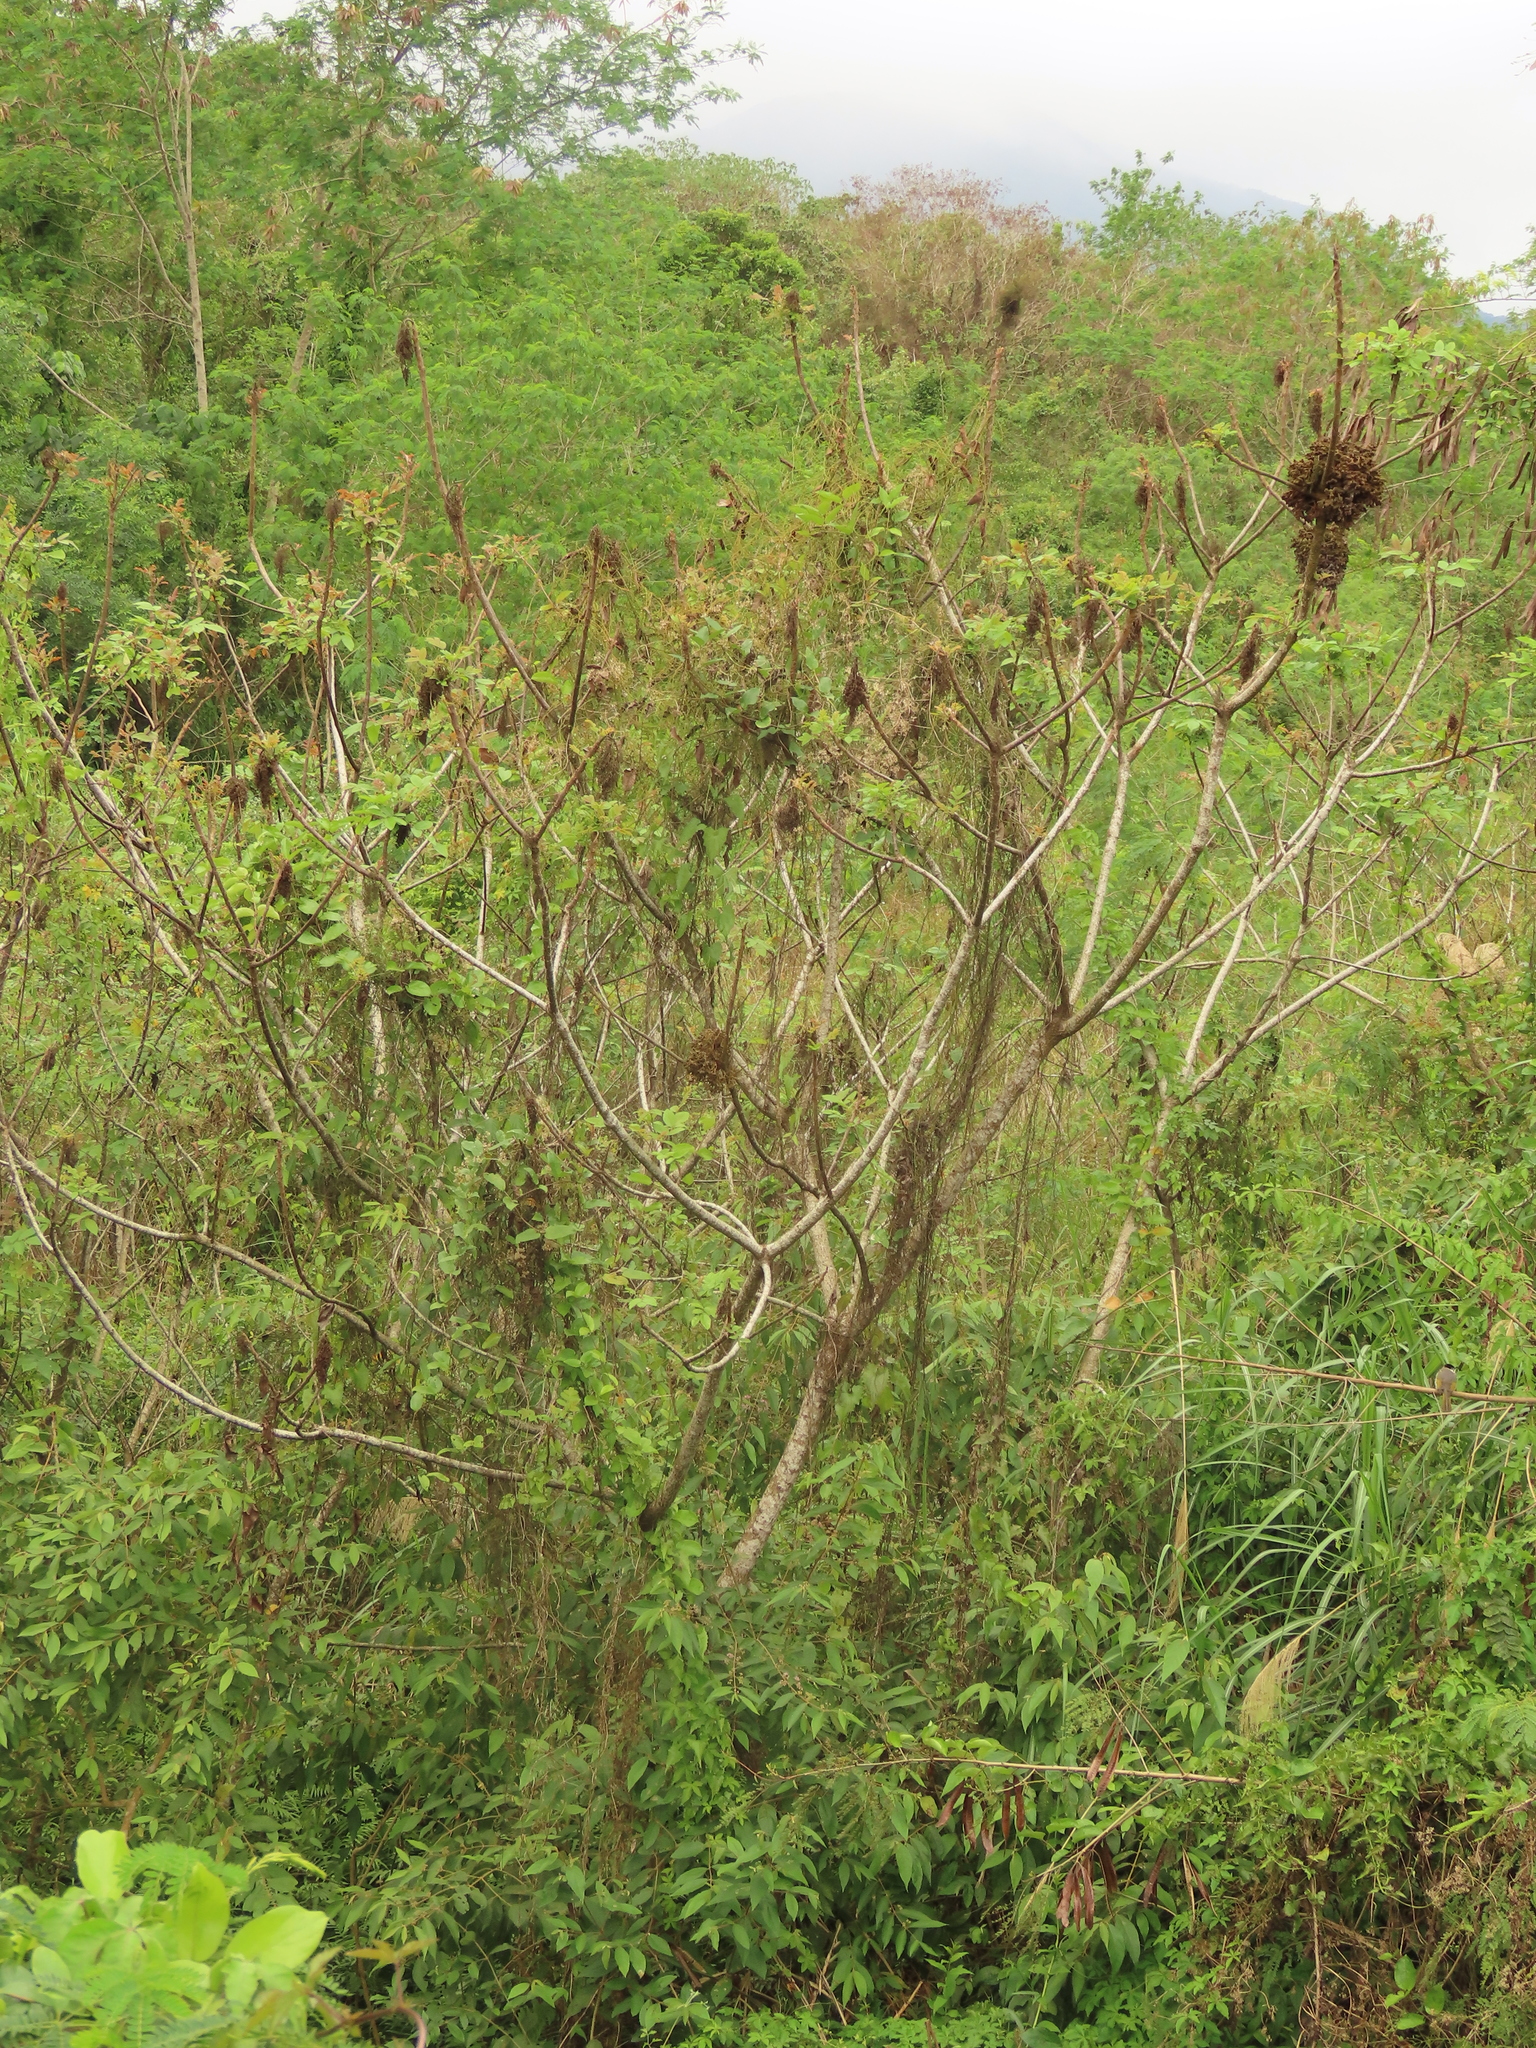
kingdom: Plantae
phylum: Tracheophyta
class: Magnoliopsida
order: Sapindales
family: Anacardiaceae
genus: Rhus
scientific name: Rhus chinensis
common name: Chinese gall
